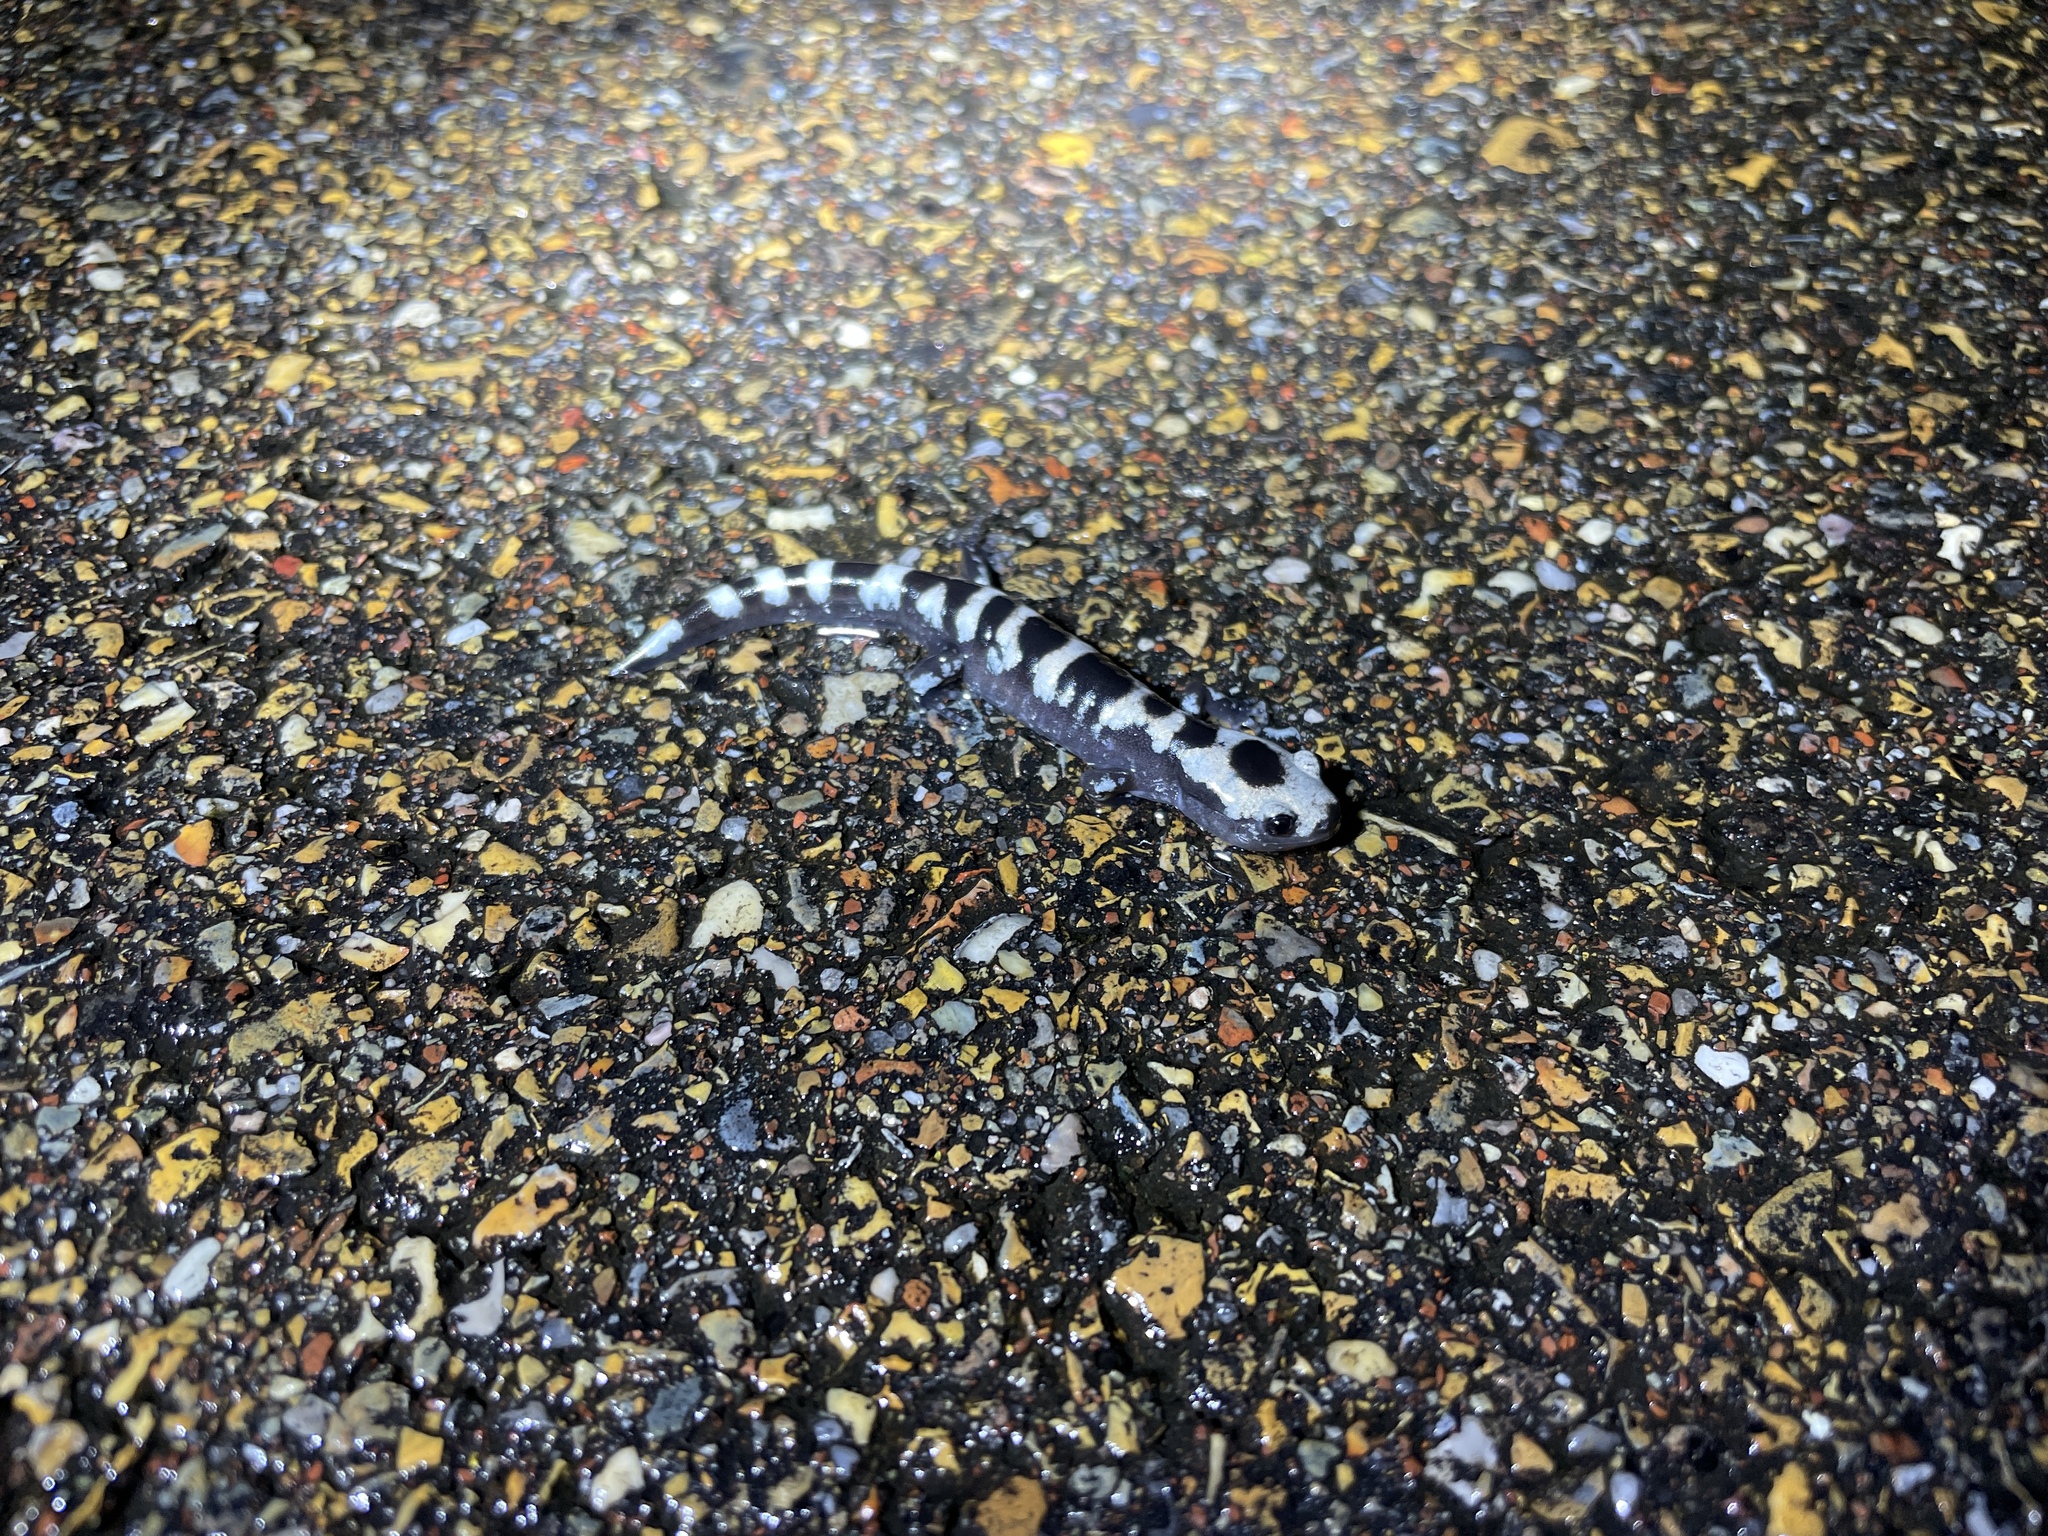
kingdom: Animalia
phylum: Chordata
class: Amphibia
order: Caudata
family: Ambystomatidae
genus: Ambystoma
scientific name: Ambystoma opacum
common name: Marbled salamander
